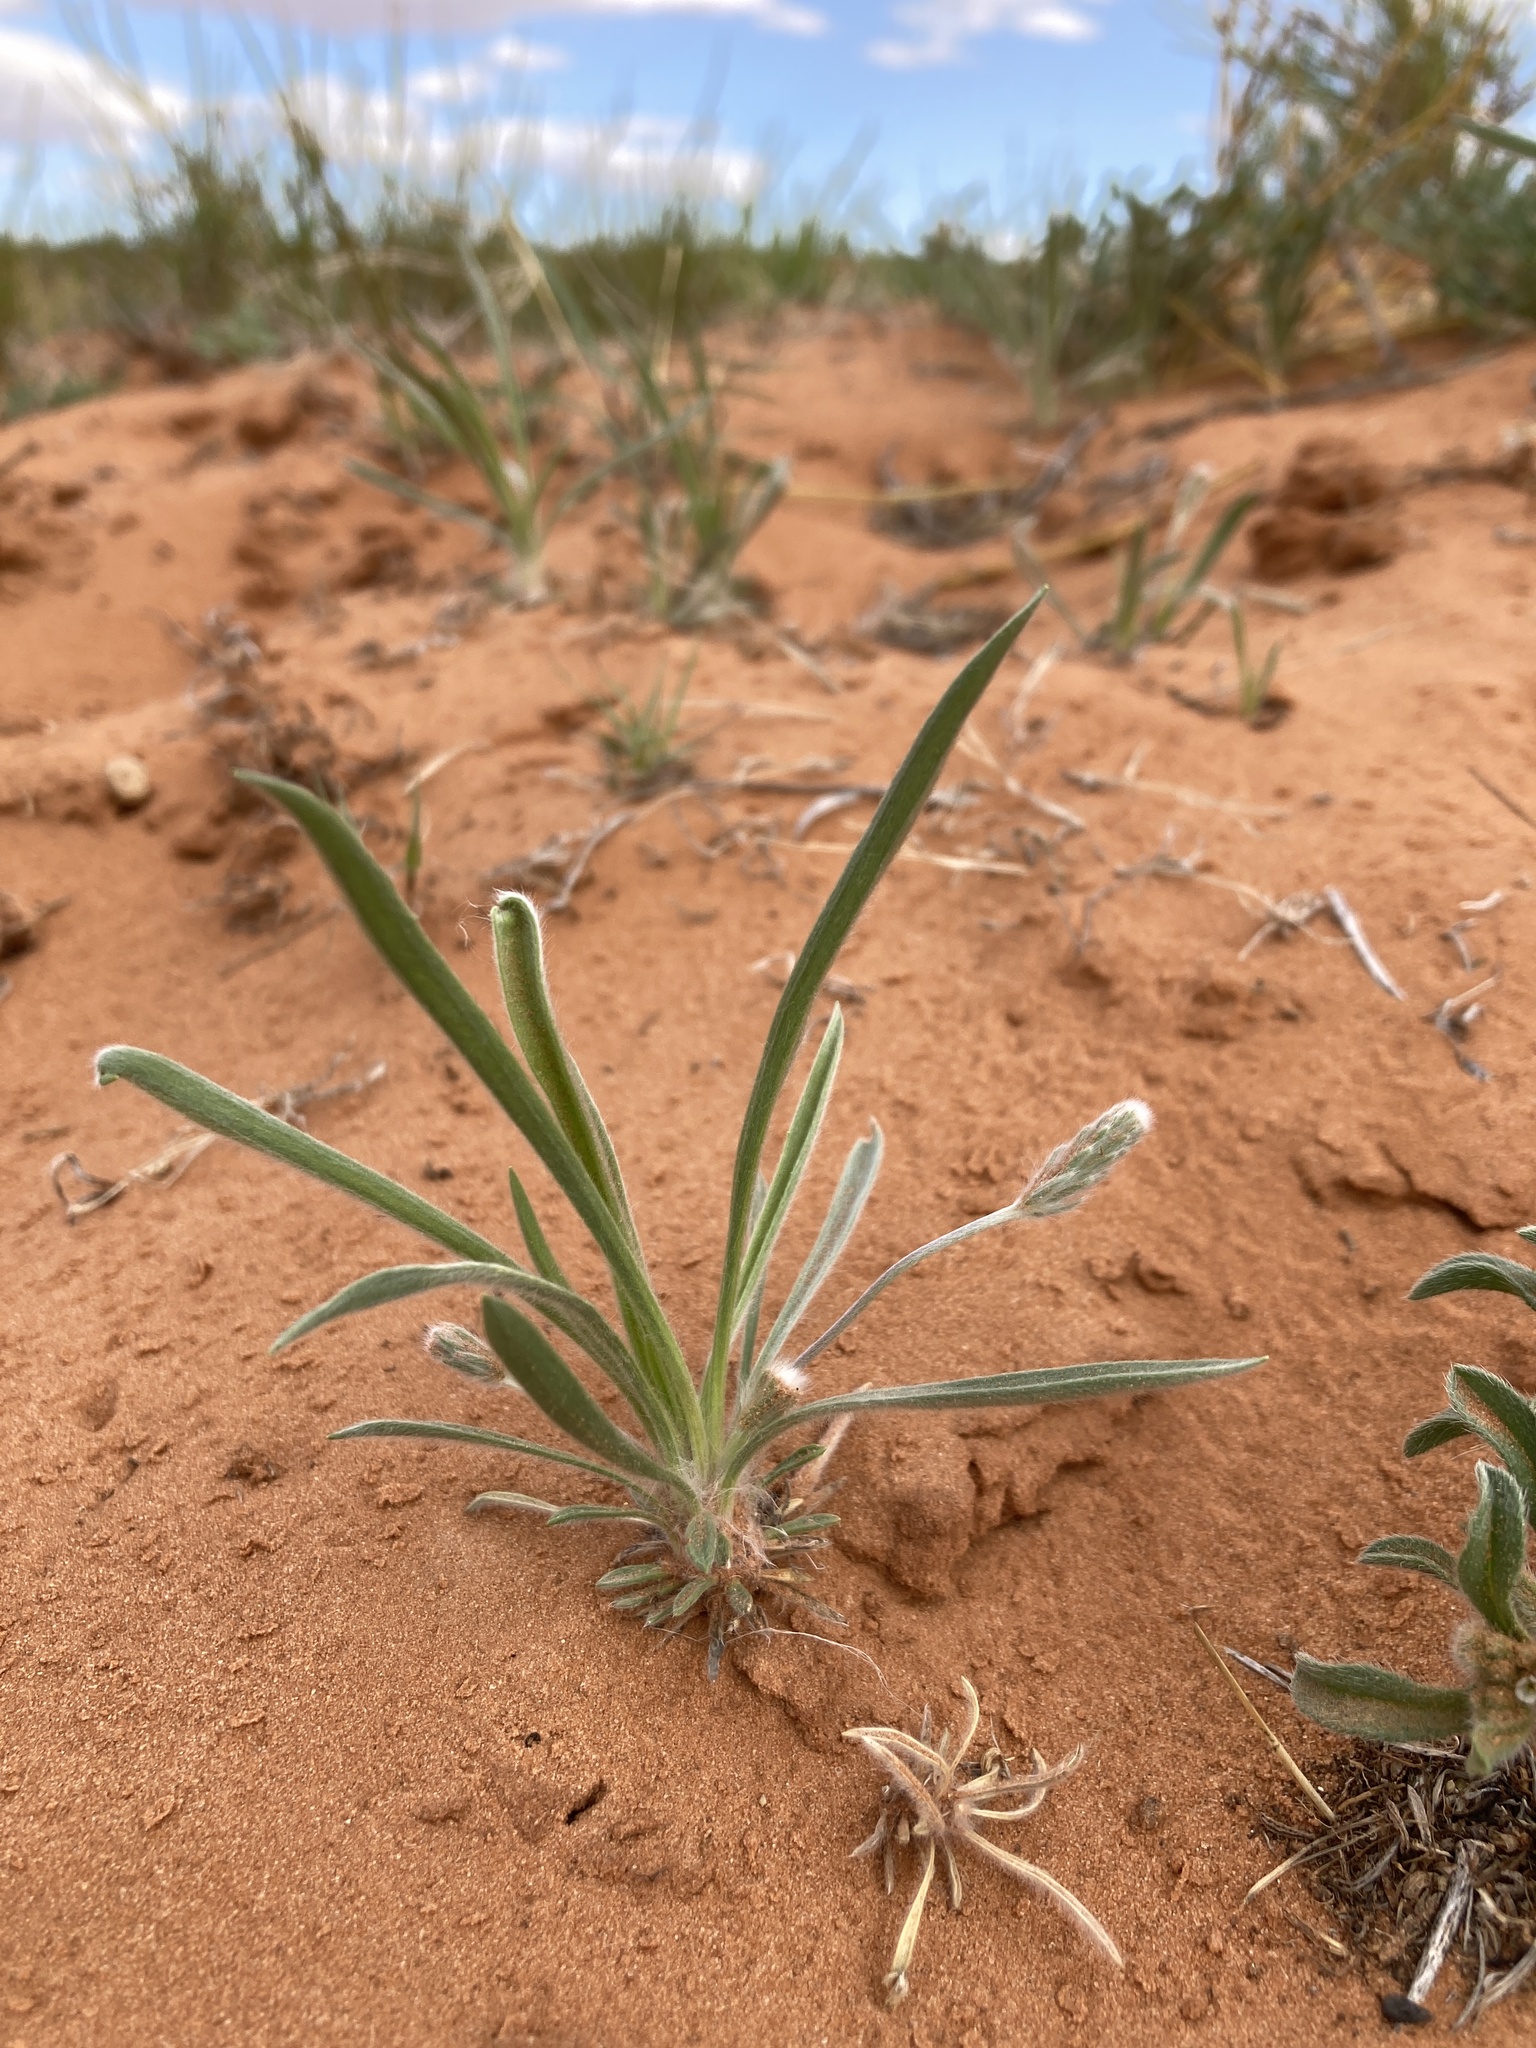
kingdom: Plantae
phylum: Tracheophyta
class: Magnoliopsida
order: Lamiales
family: Plantaginaceae
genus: Plantago
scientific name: Plantago patagonica
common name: Patagonia indian-wheat
